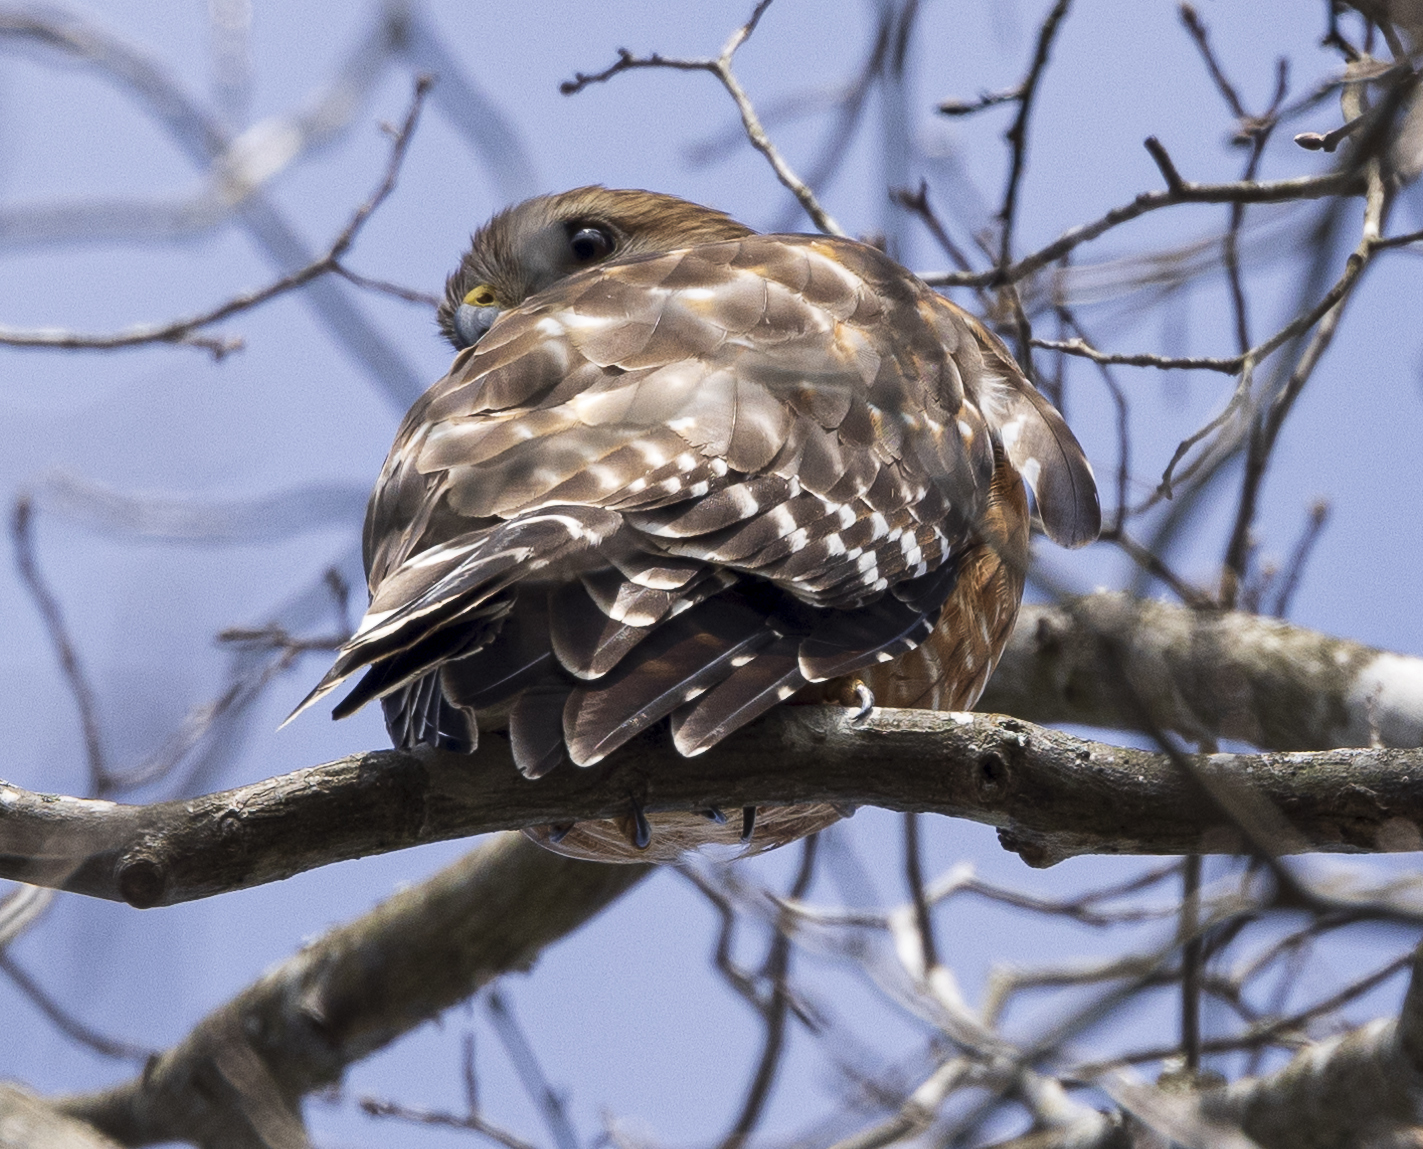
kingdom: Animalia
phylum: Chordata
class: Aves
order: Accipitriformes
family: Accipitridae
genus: Buteo
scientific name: Buteo lineatus
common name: Red-shouldered hawk
